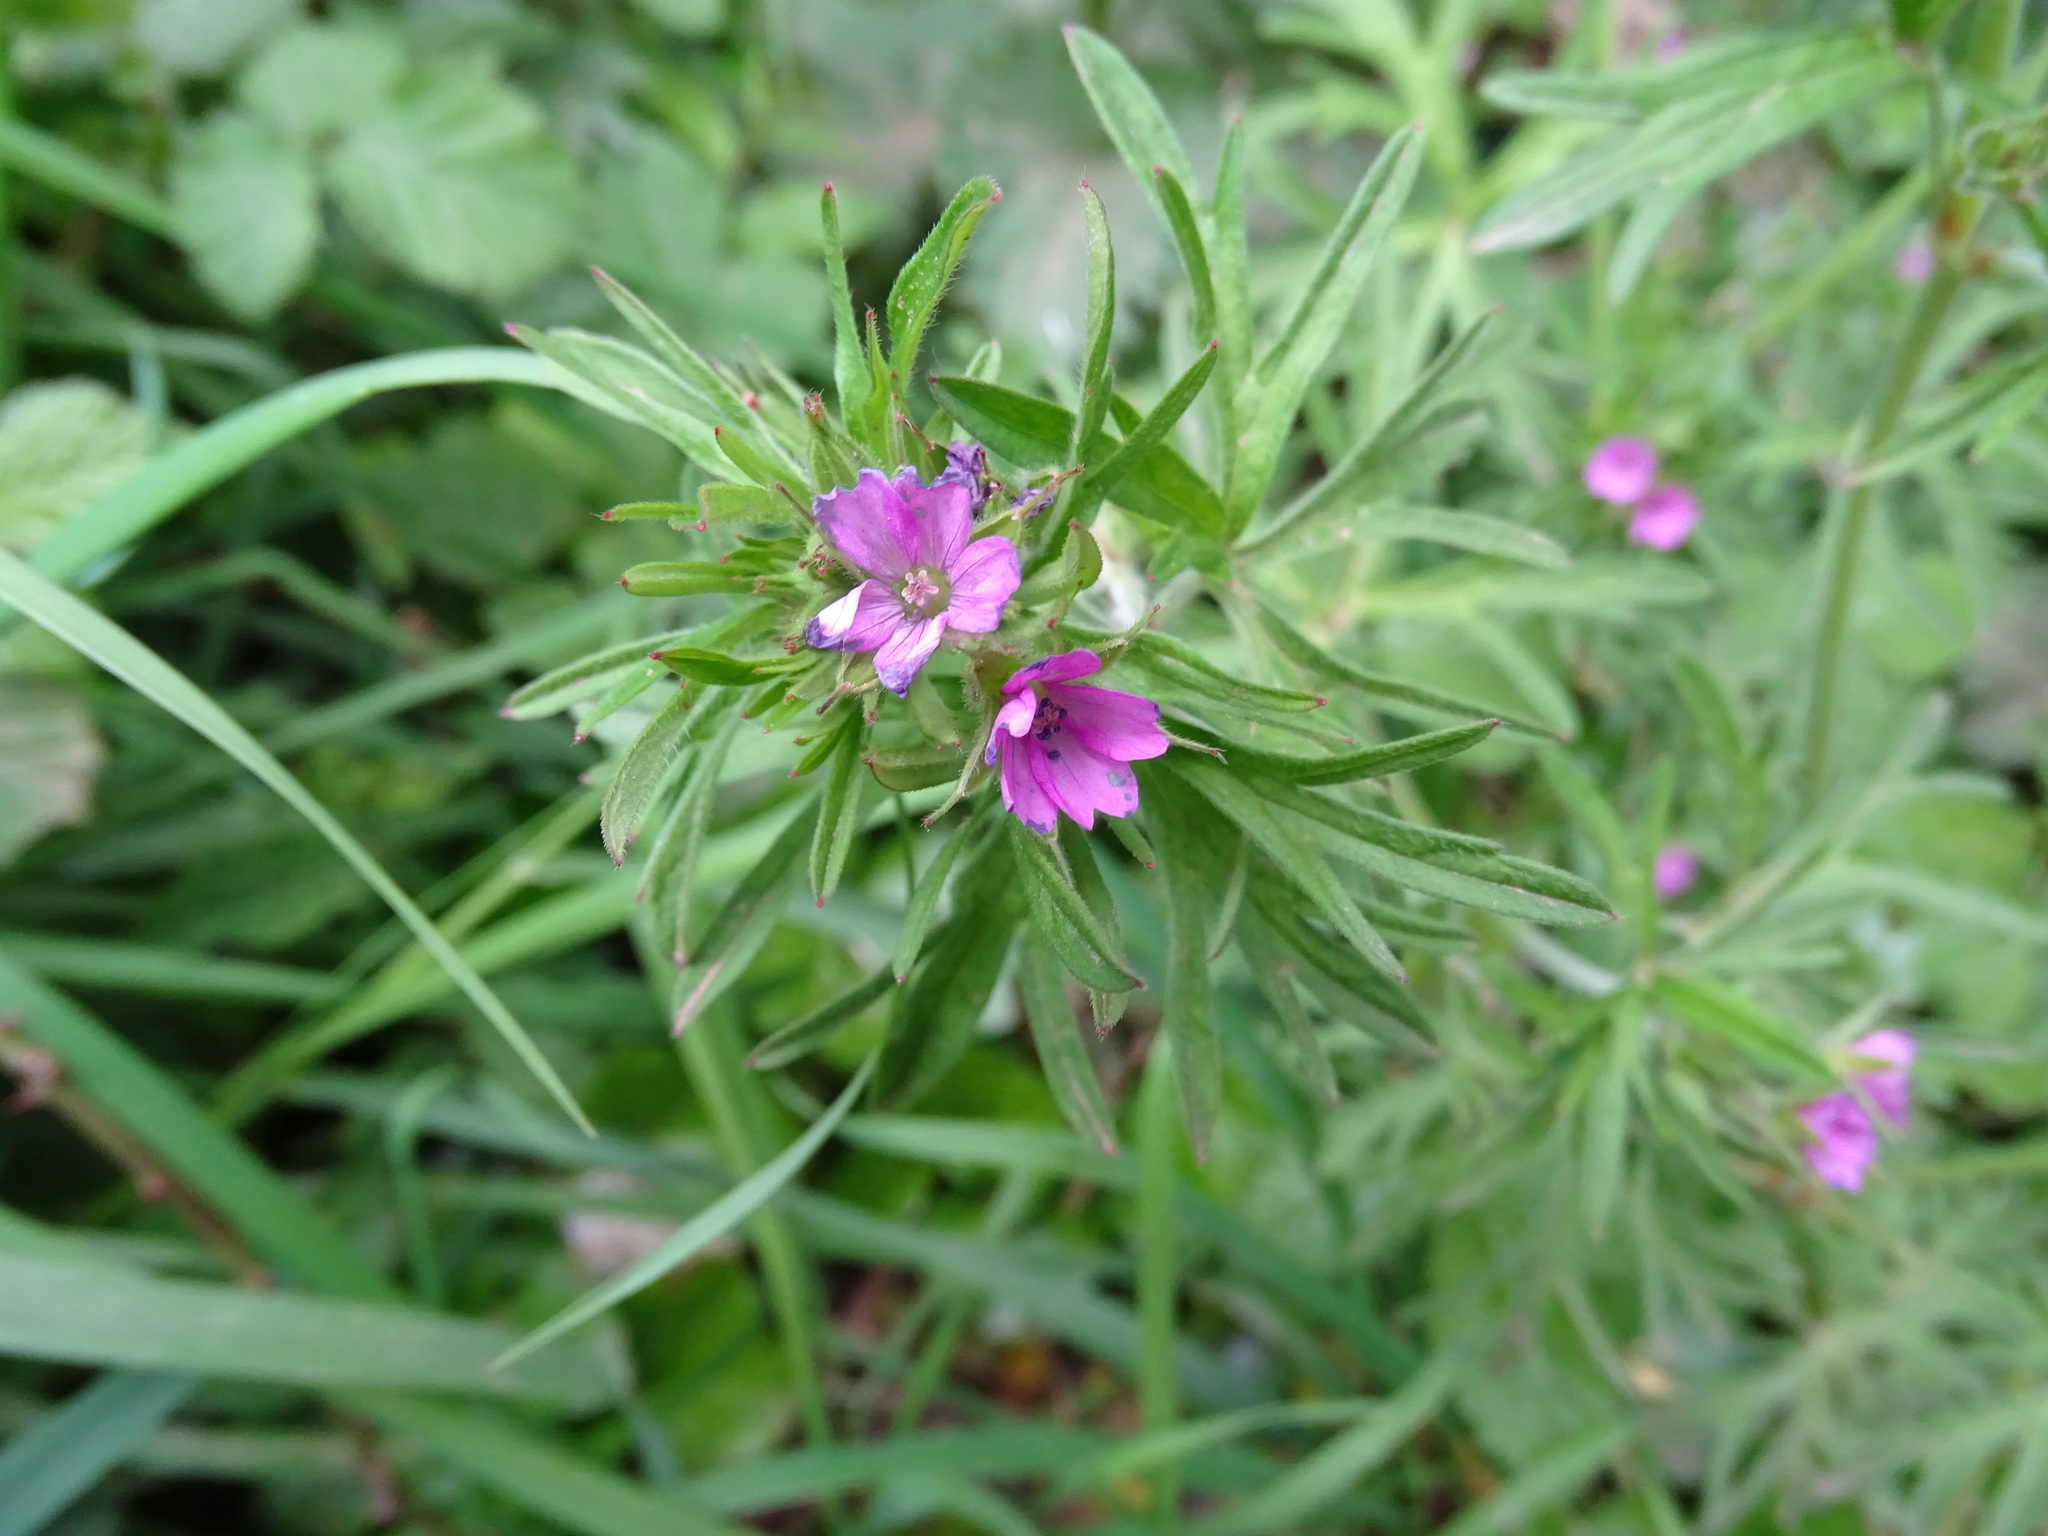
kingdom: Plantae
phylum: Tracheophyta
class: Magnoliopsida
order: Geraniales
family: Geraniaceae
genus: Geranium
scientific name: Geranium dissectum
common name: Cut-leaved crane's-bill
